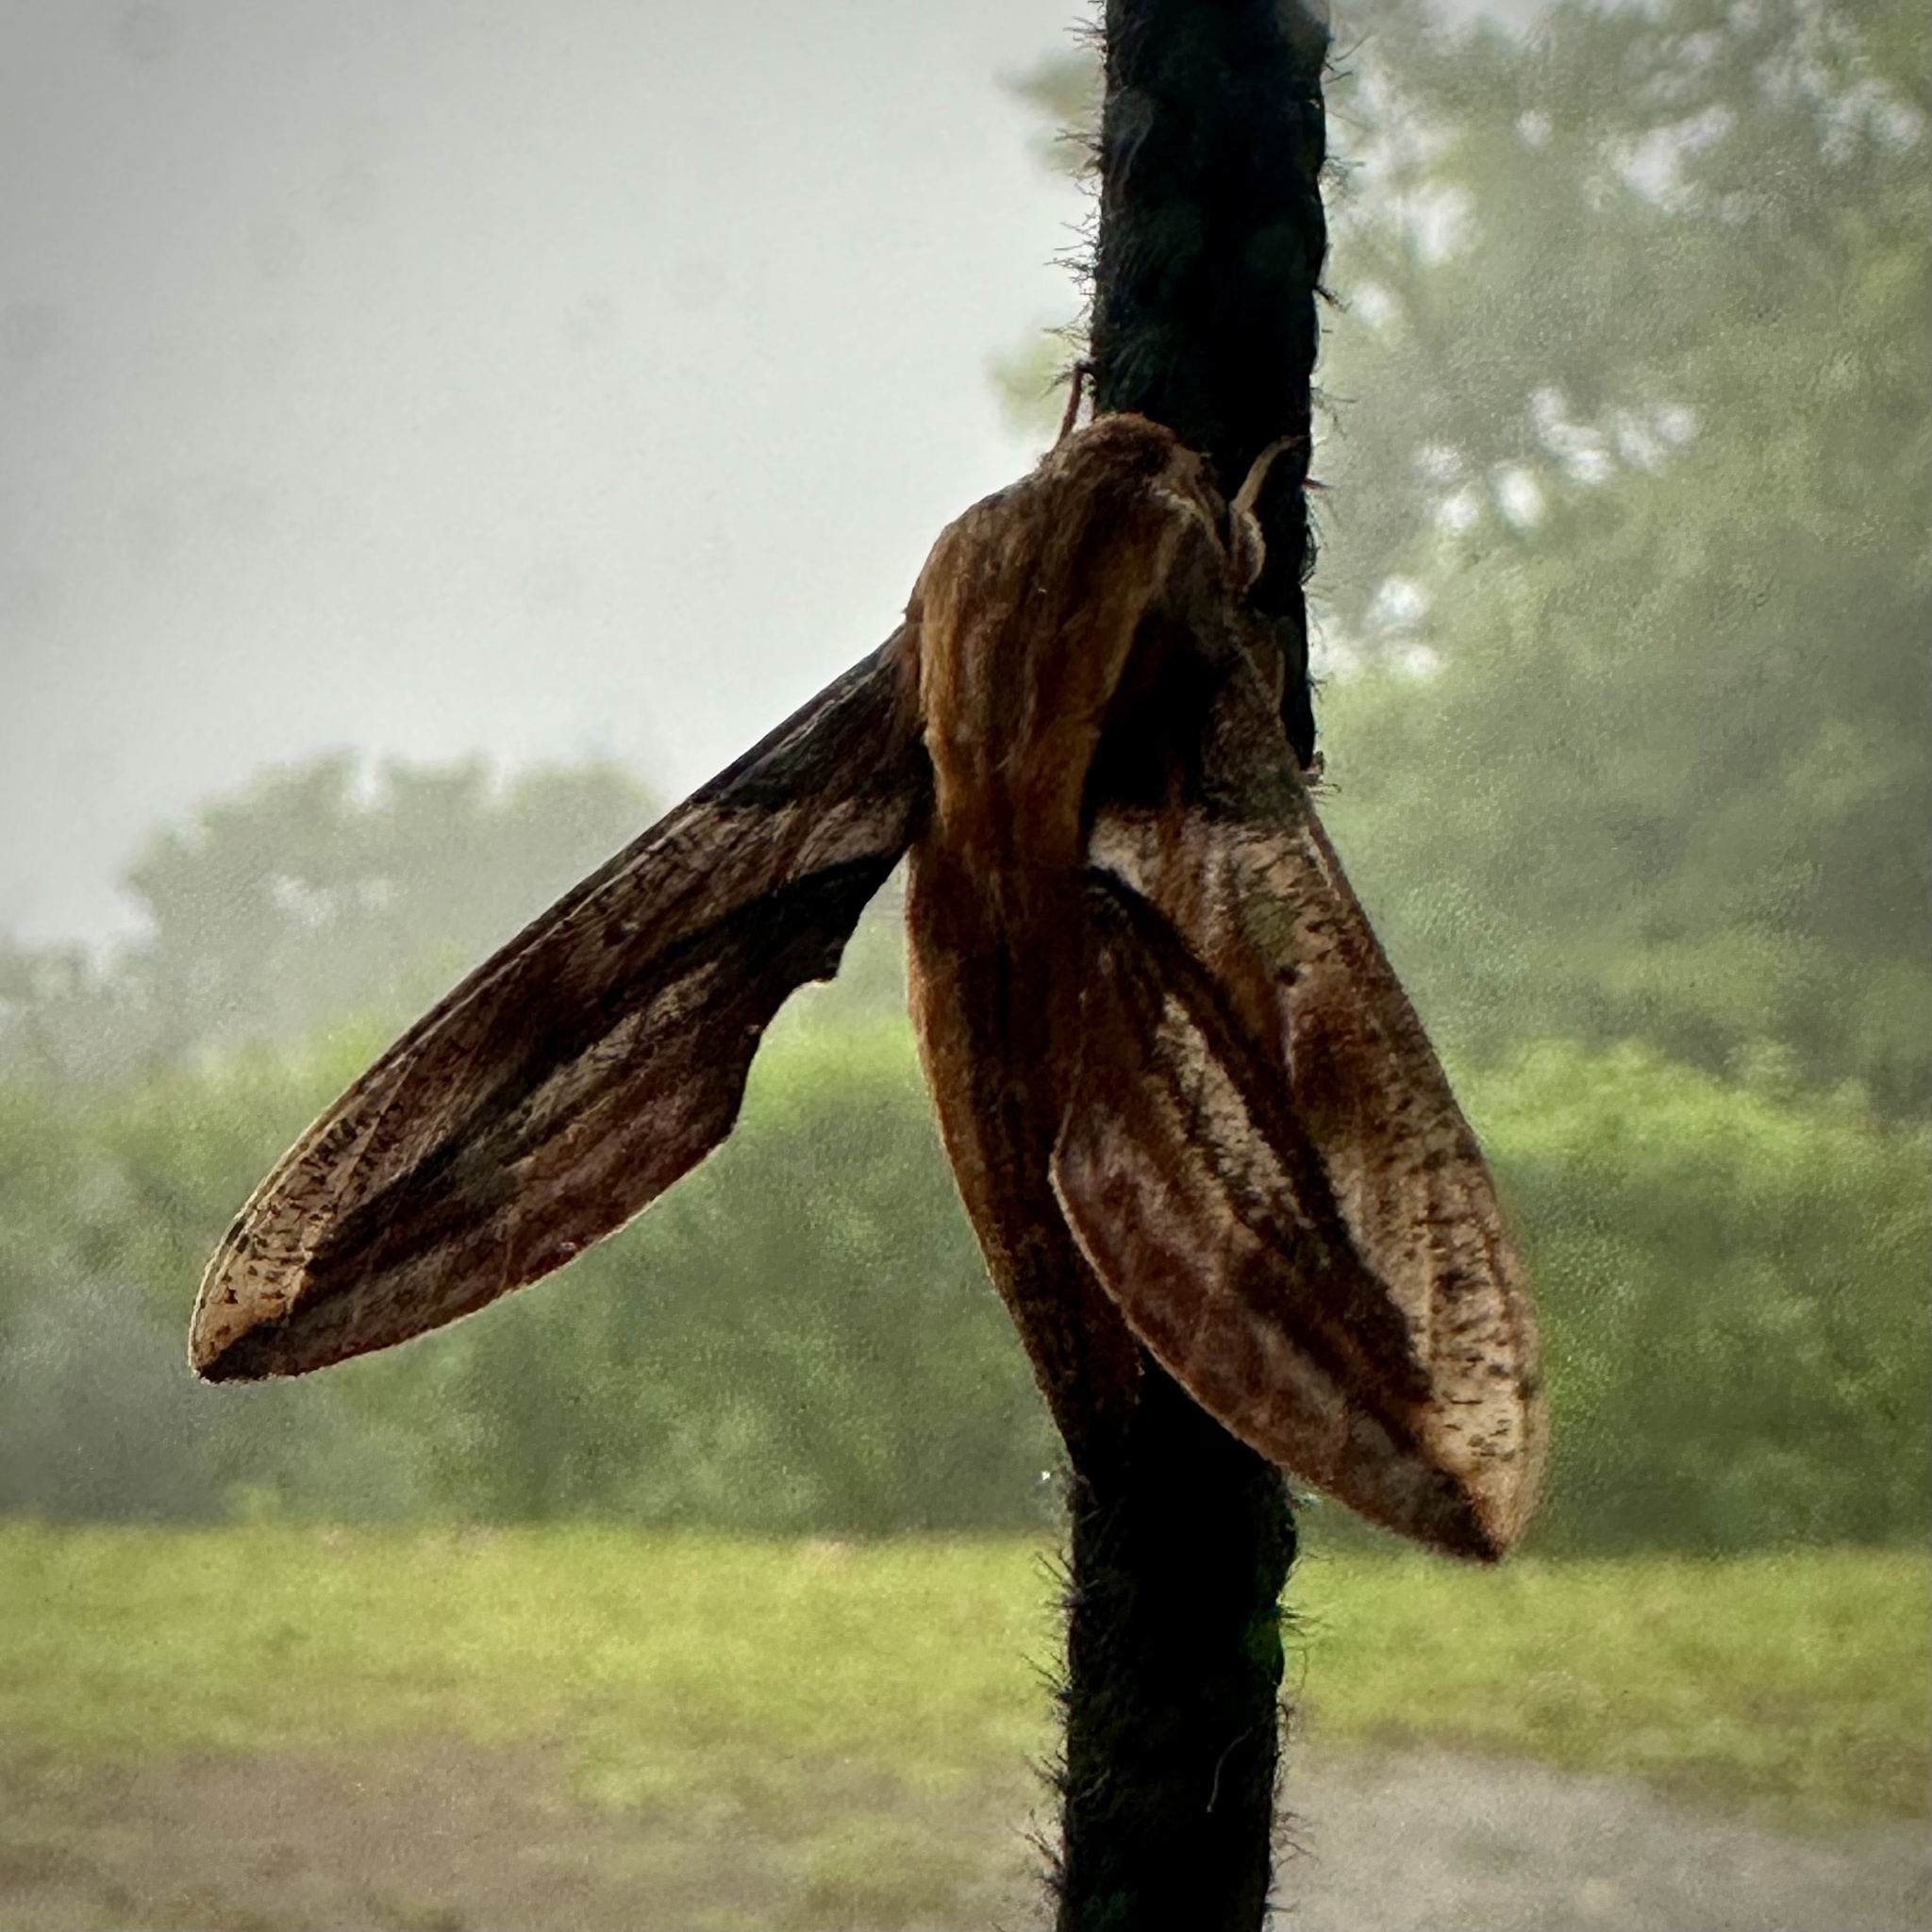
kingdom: Animalia
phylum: Arthropoda
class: Insecta
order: Lepidoptera
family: Sphingidae
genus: Xylophanes
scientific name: Xylophanes jordani
